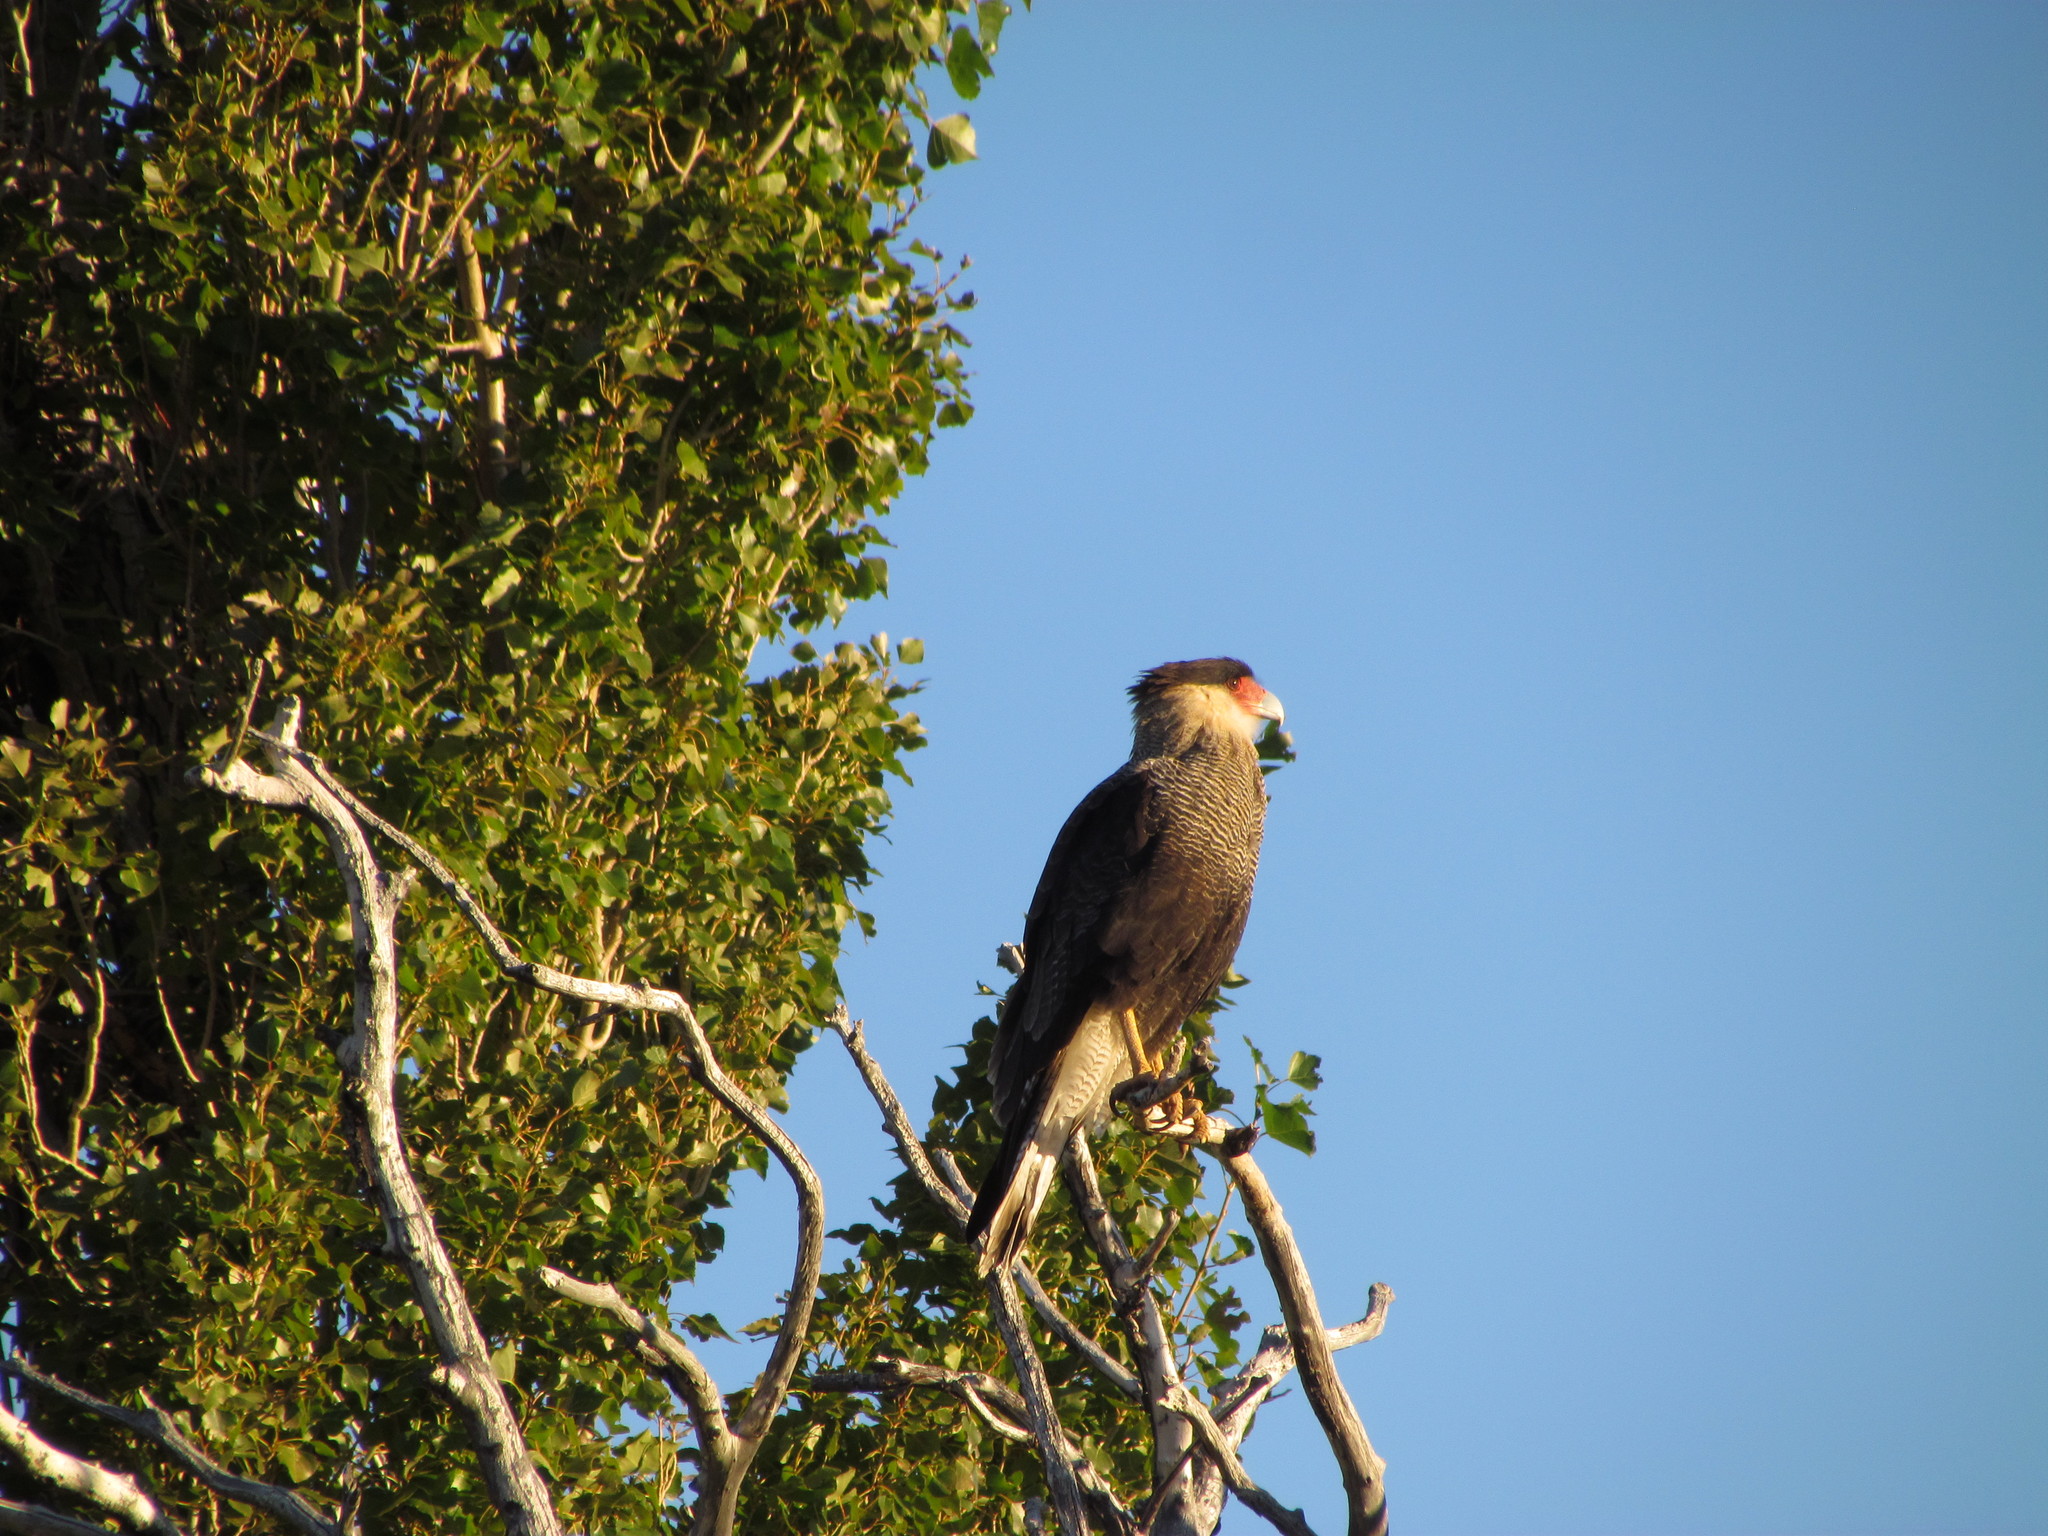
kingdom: Animalia
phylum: Chordata
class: Aves
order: Falconiformes
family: Falconidae
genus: Caracara
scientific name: Caracara plancus
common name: Southern caracara
